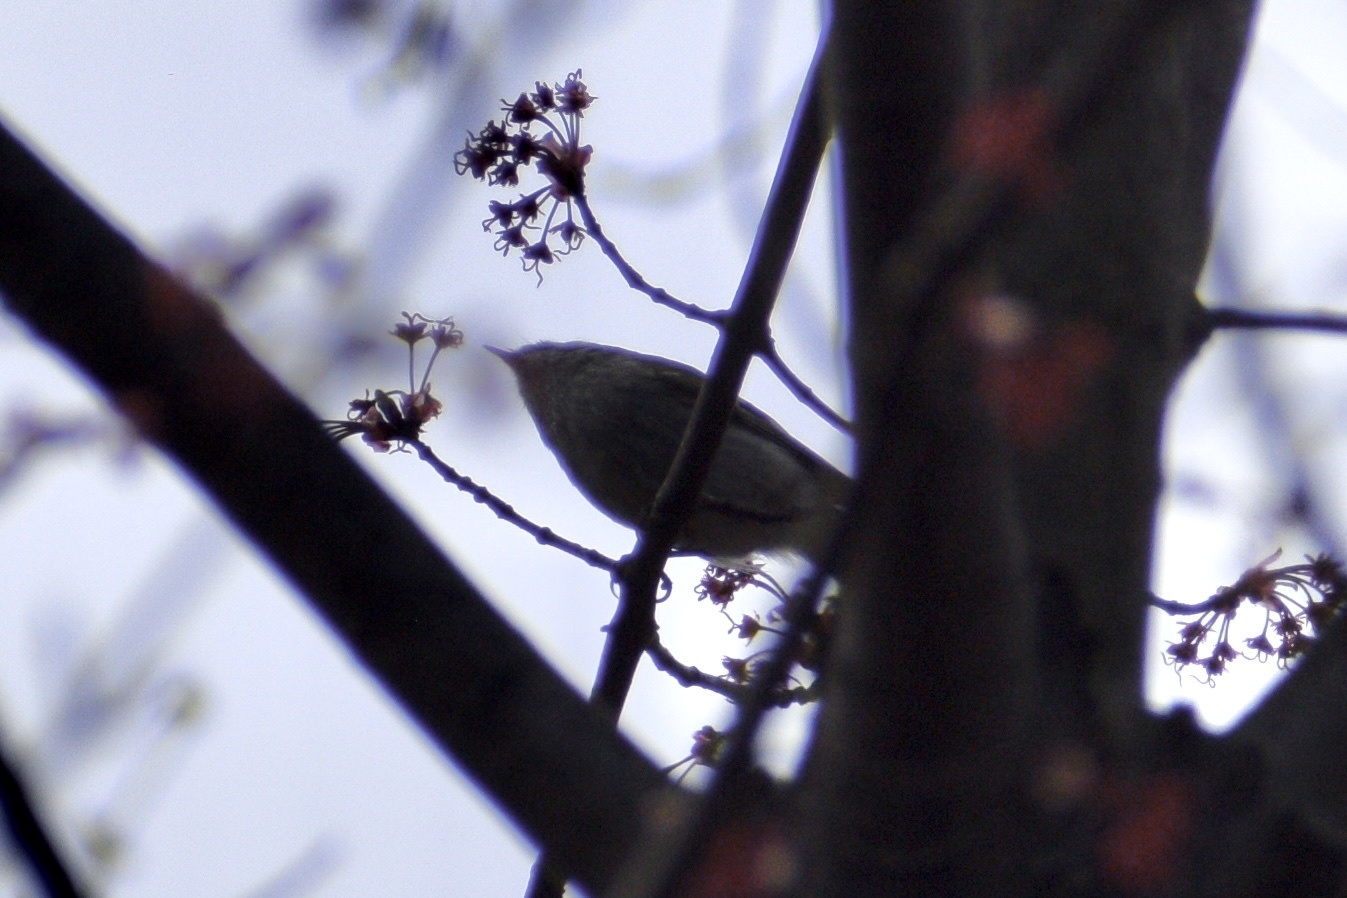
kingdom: Animalia
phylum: Chordata
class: Aves
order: Passeriformes
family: Regulidae
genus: Regulus
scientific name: Regulus satrapa
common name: Golden-crowned kinglet
